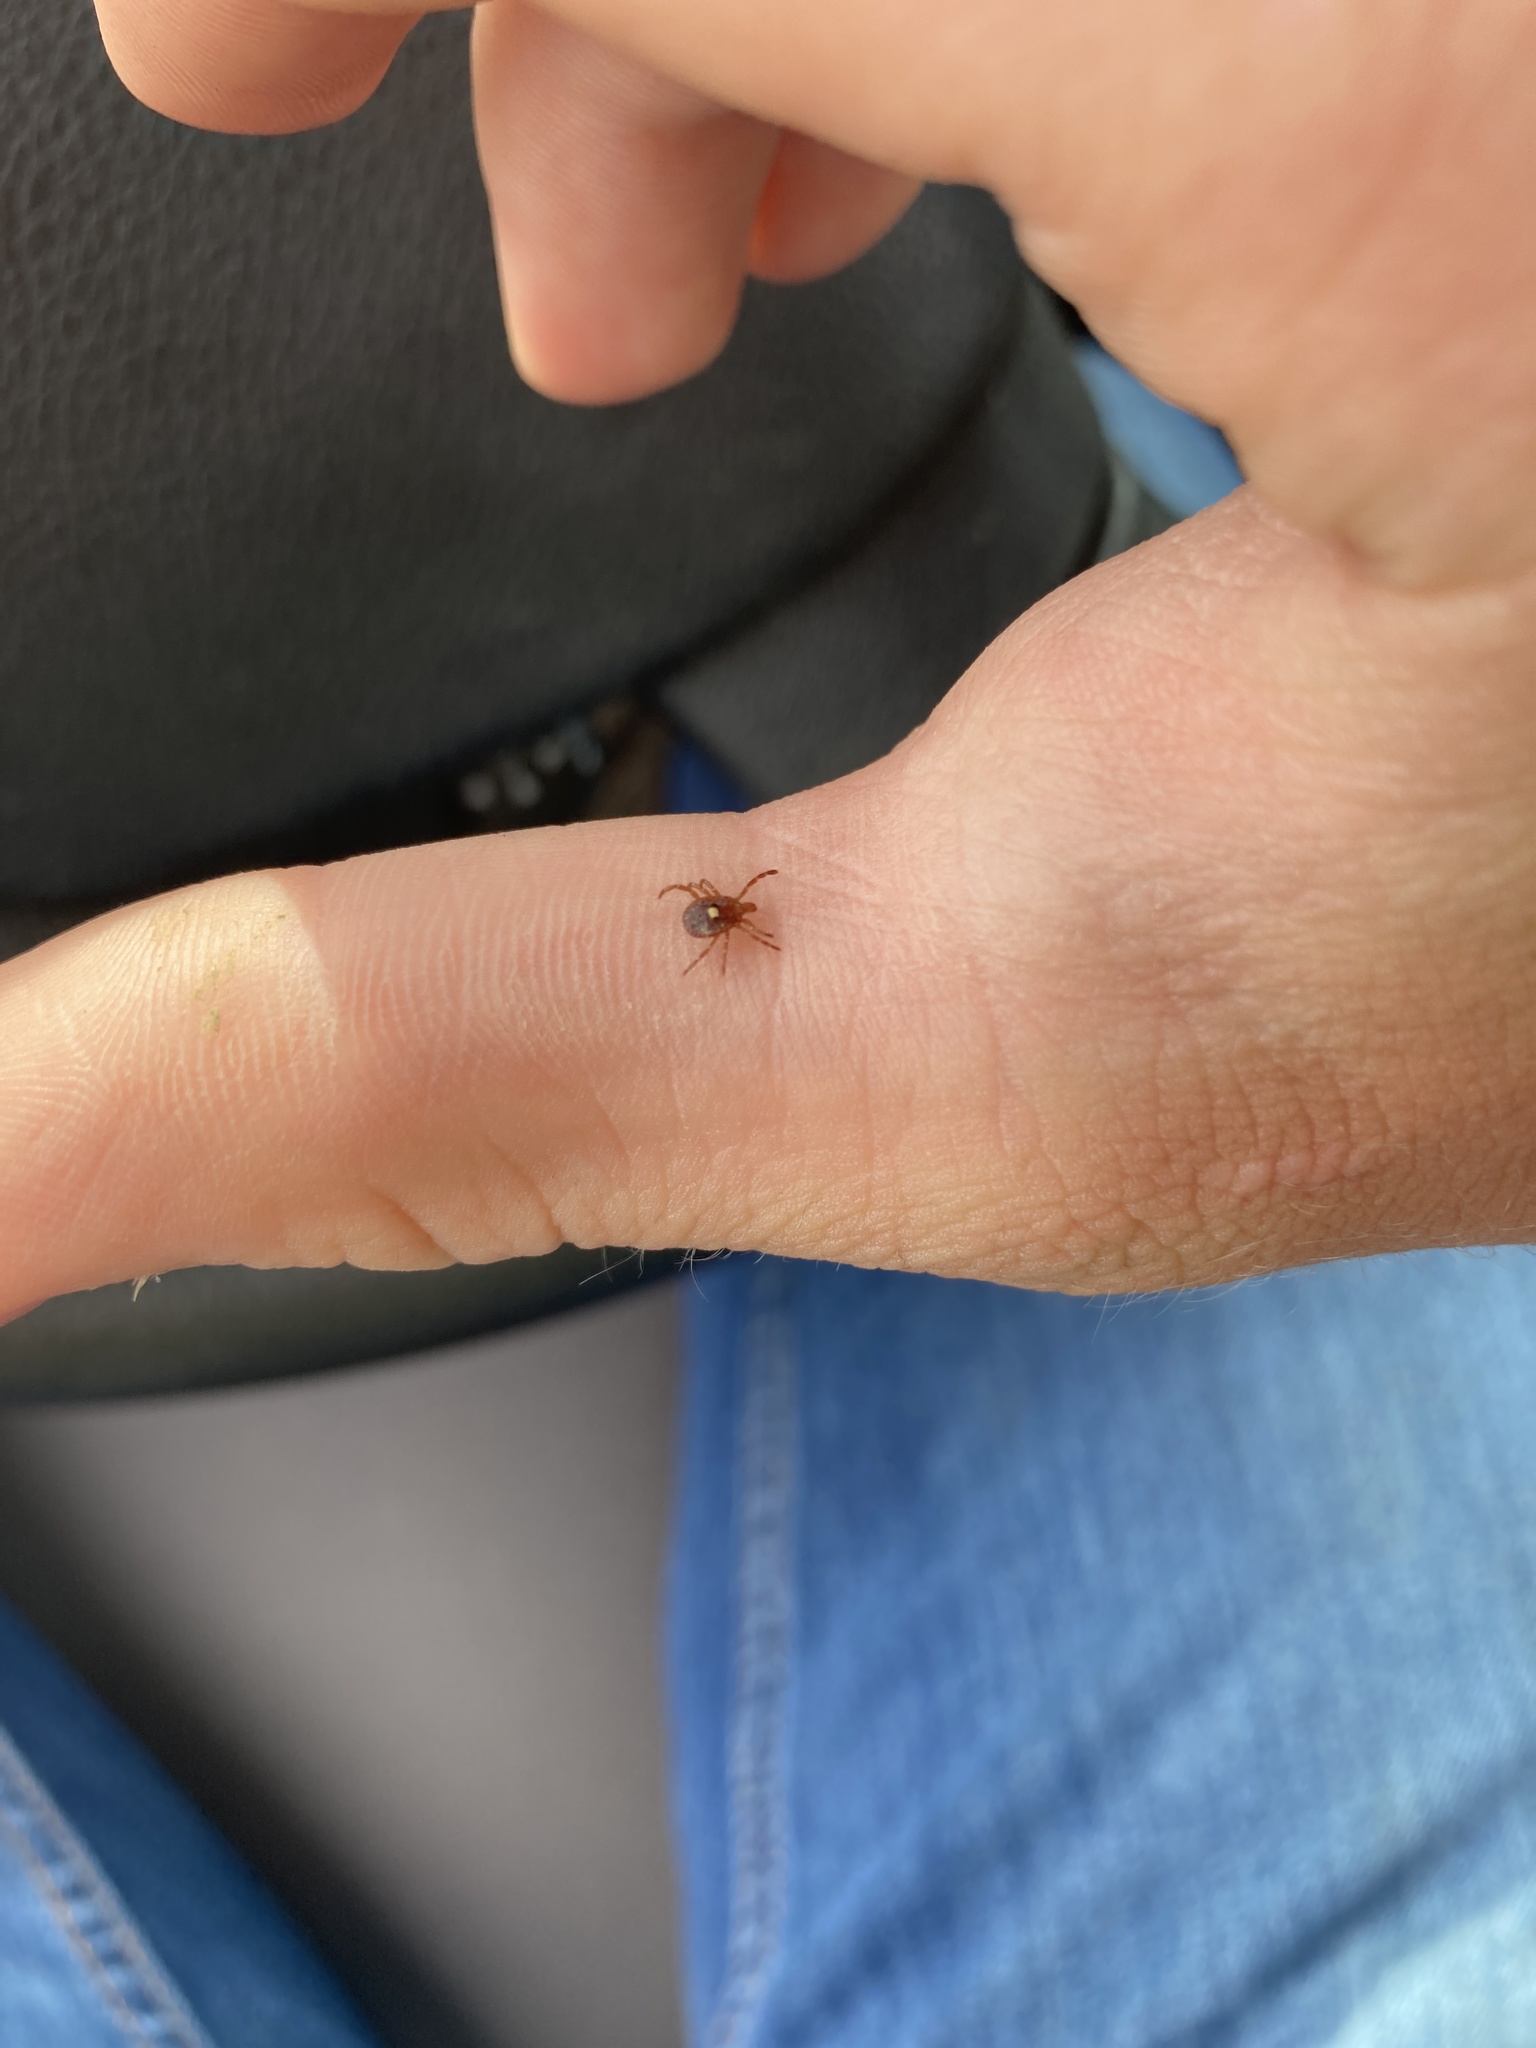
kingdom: Animalia
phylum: Arthropoda
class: Arachnida
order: Ixodida
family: Ixodidae
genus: Amblyomma
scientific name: Amblyomma americanum
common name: Lone star tick
